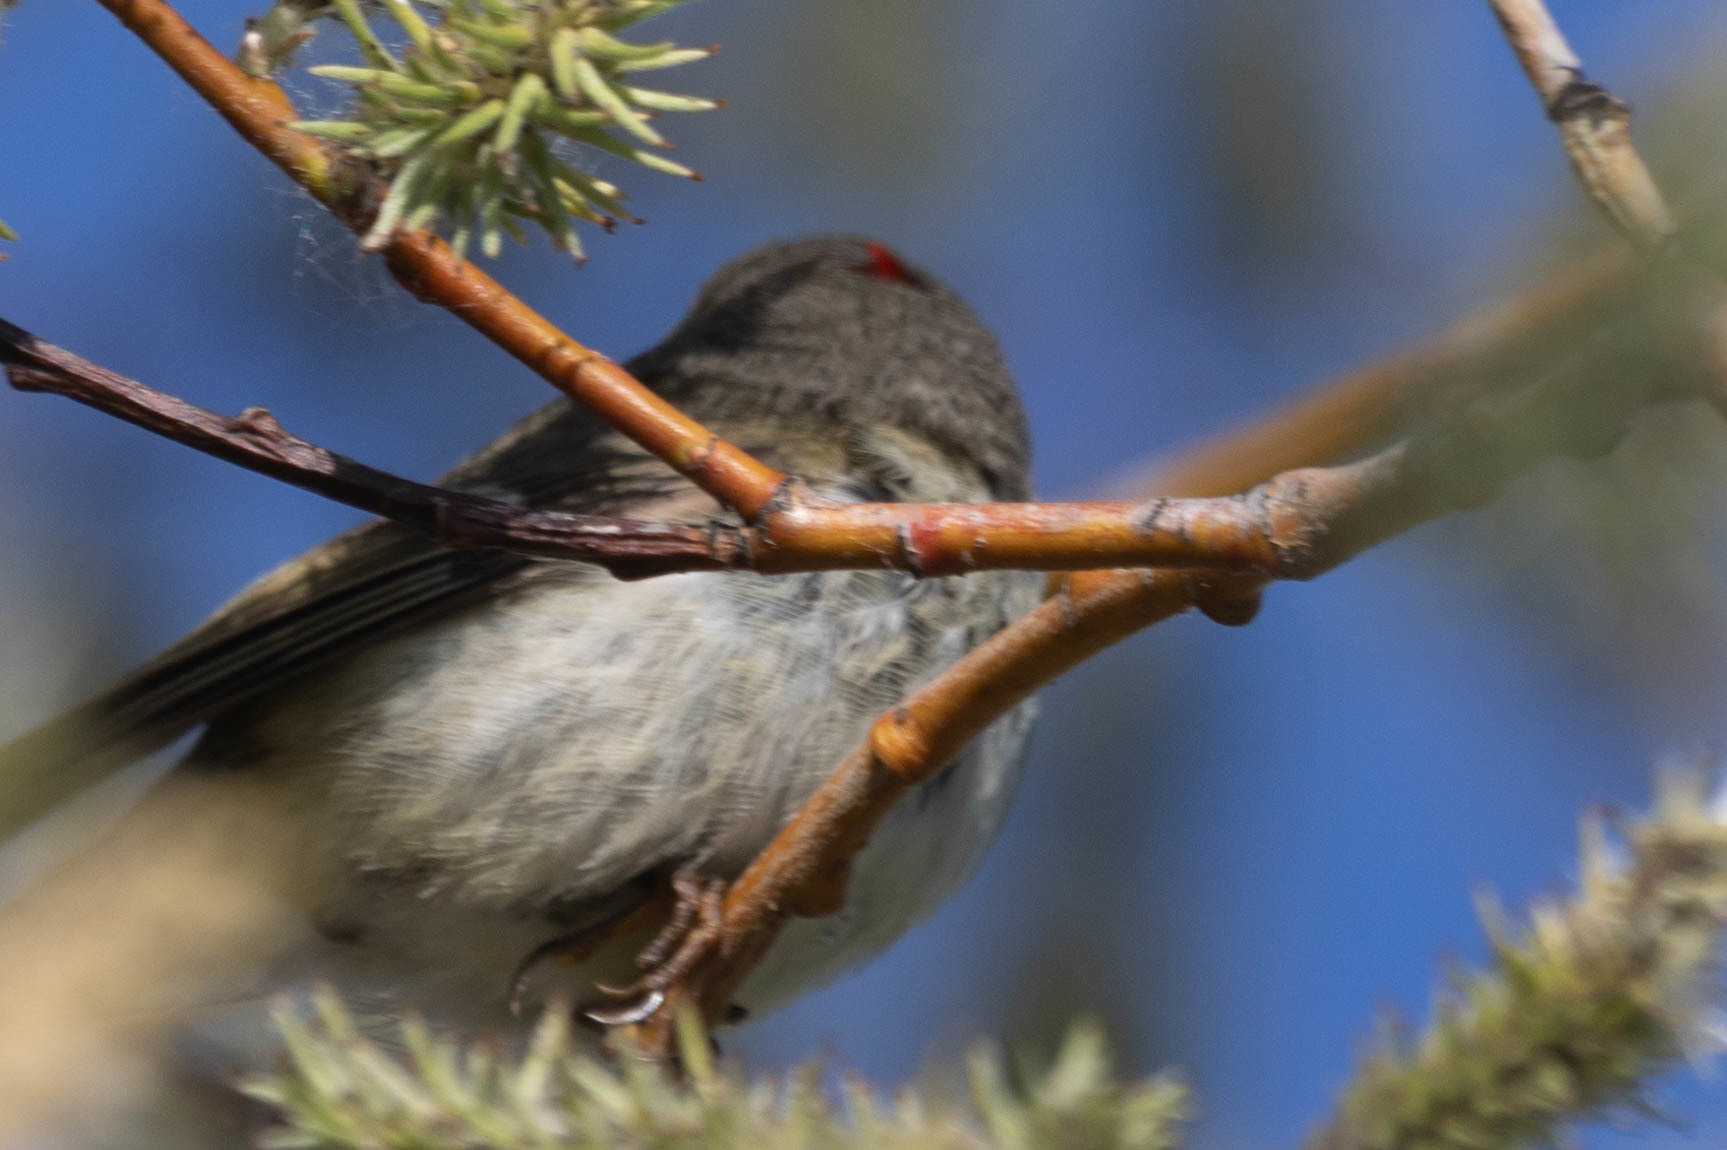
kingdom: Animalia
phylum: Chordata
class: Aves
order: Passeriformes
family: Regulidae
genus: Regulus
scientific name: Regulus calendula
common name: Ruby-crowned kinglet
